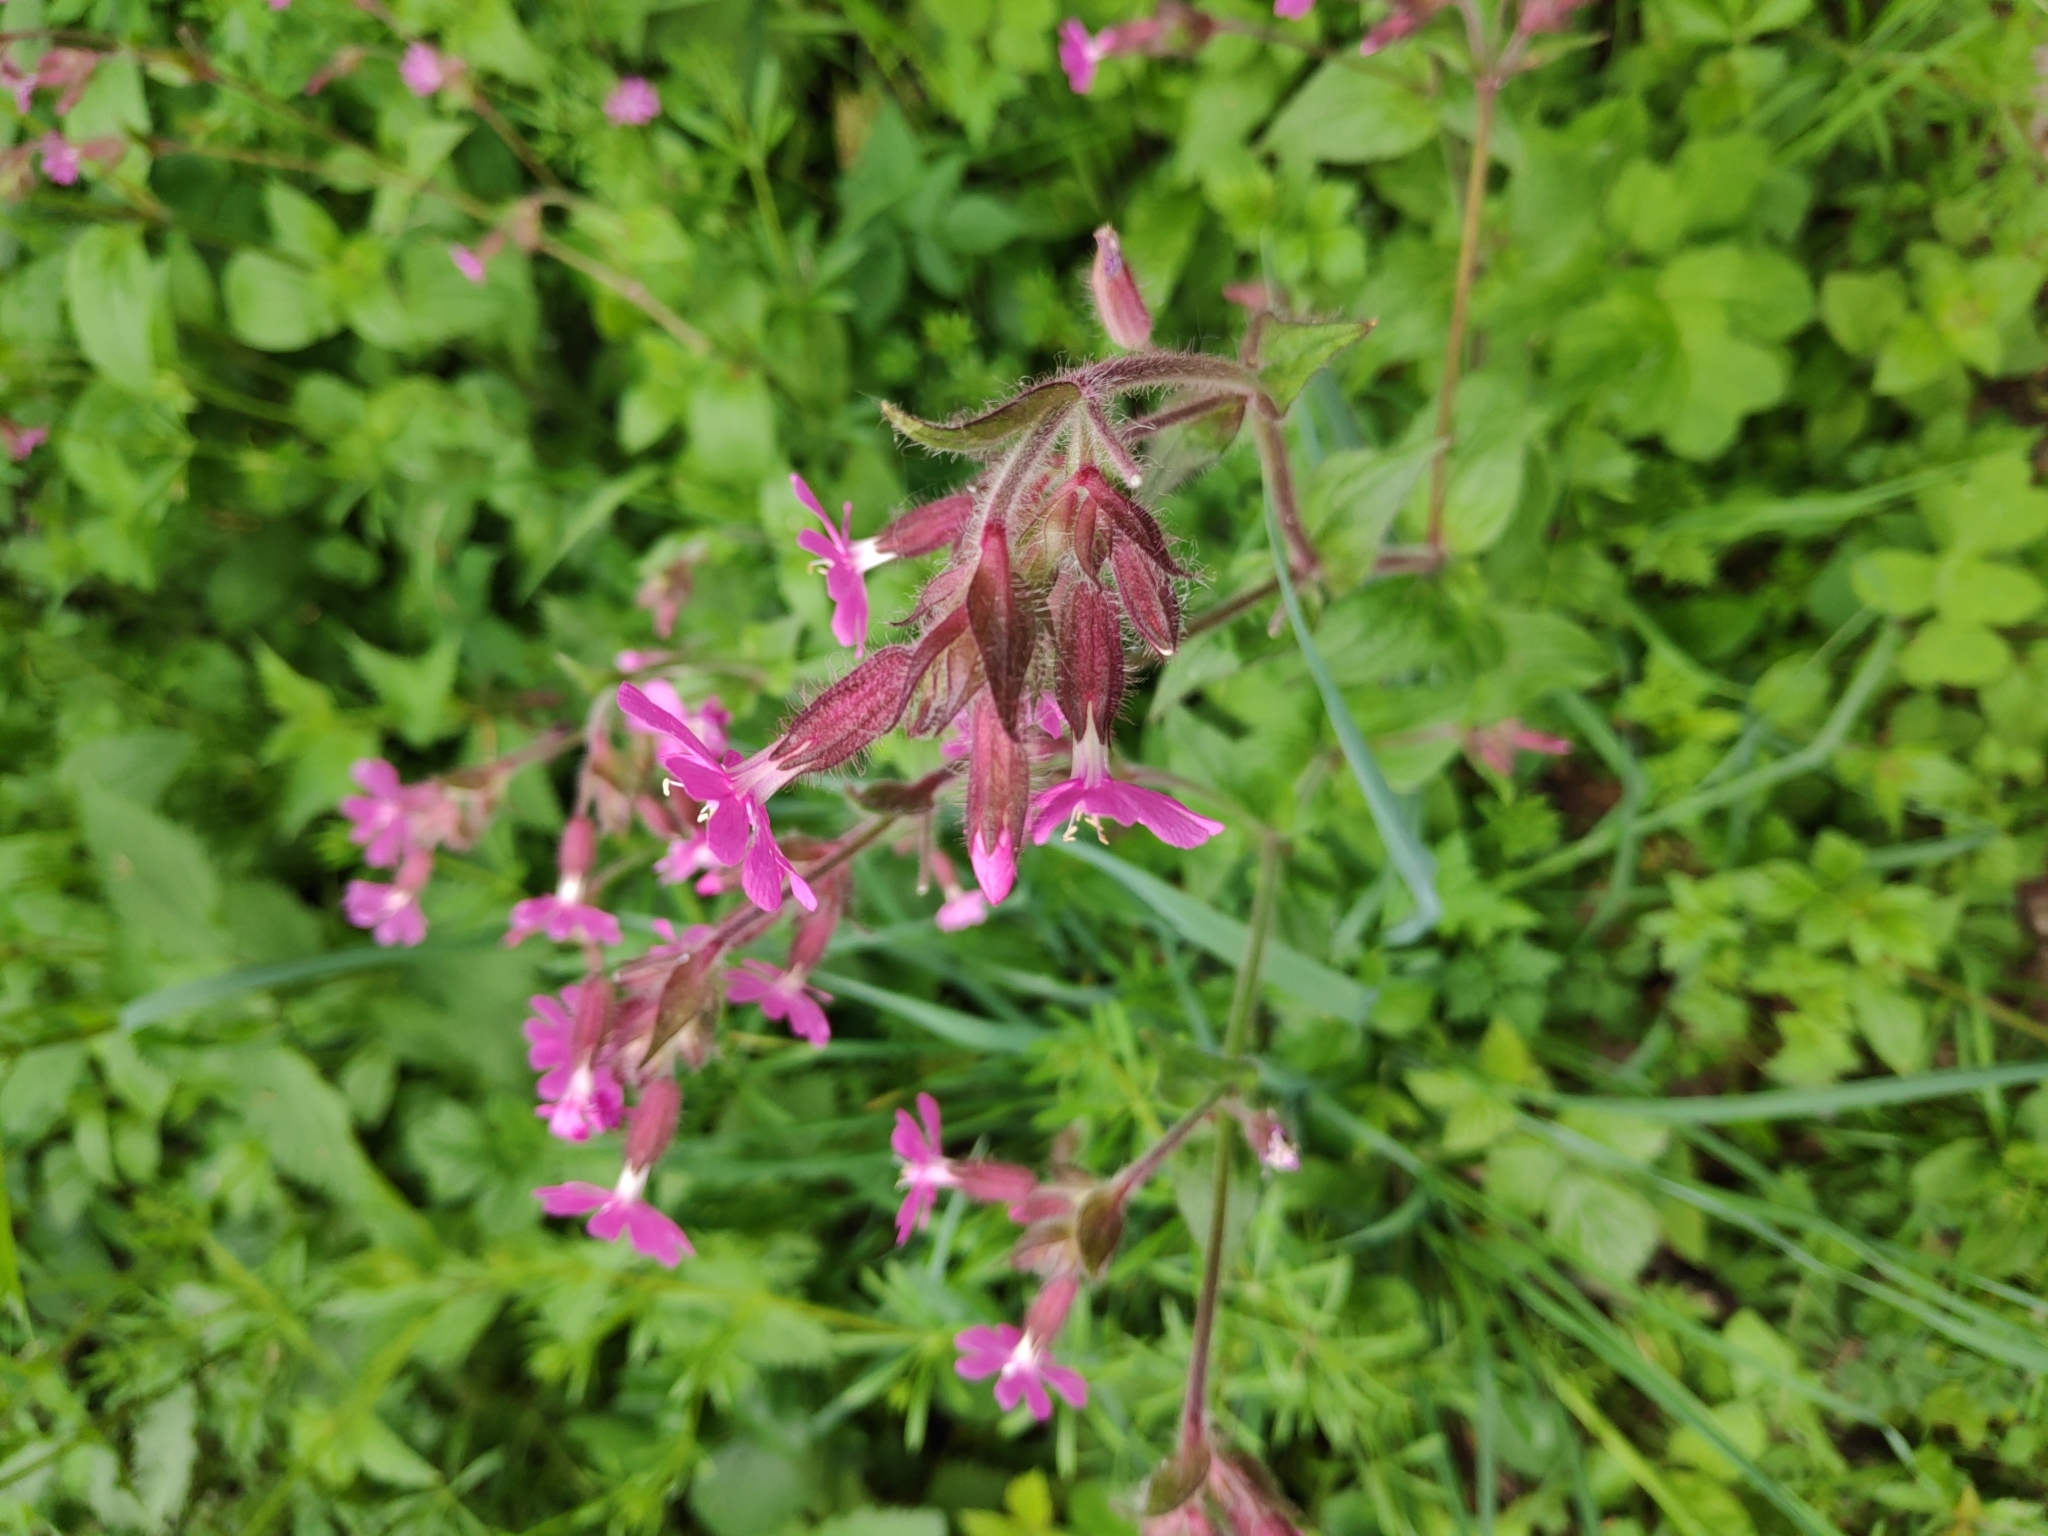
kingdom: Plantae
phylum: Tracheophyta
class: Magnoliopsida
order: Caryophyllales
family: Caryophyllaceae
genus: Silene
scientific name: Silene dioica
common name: Red campion
